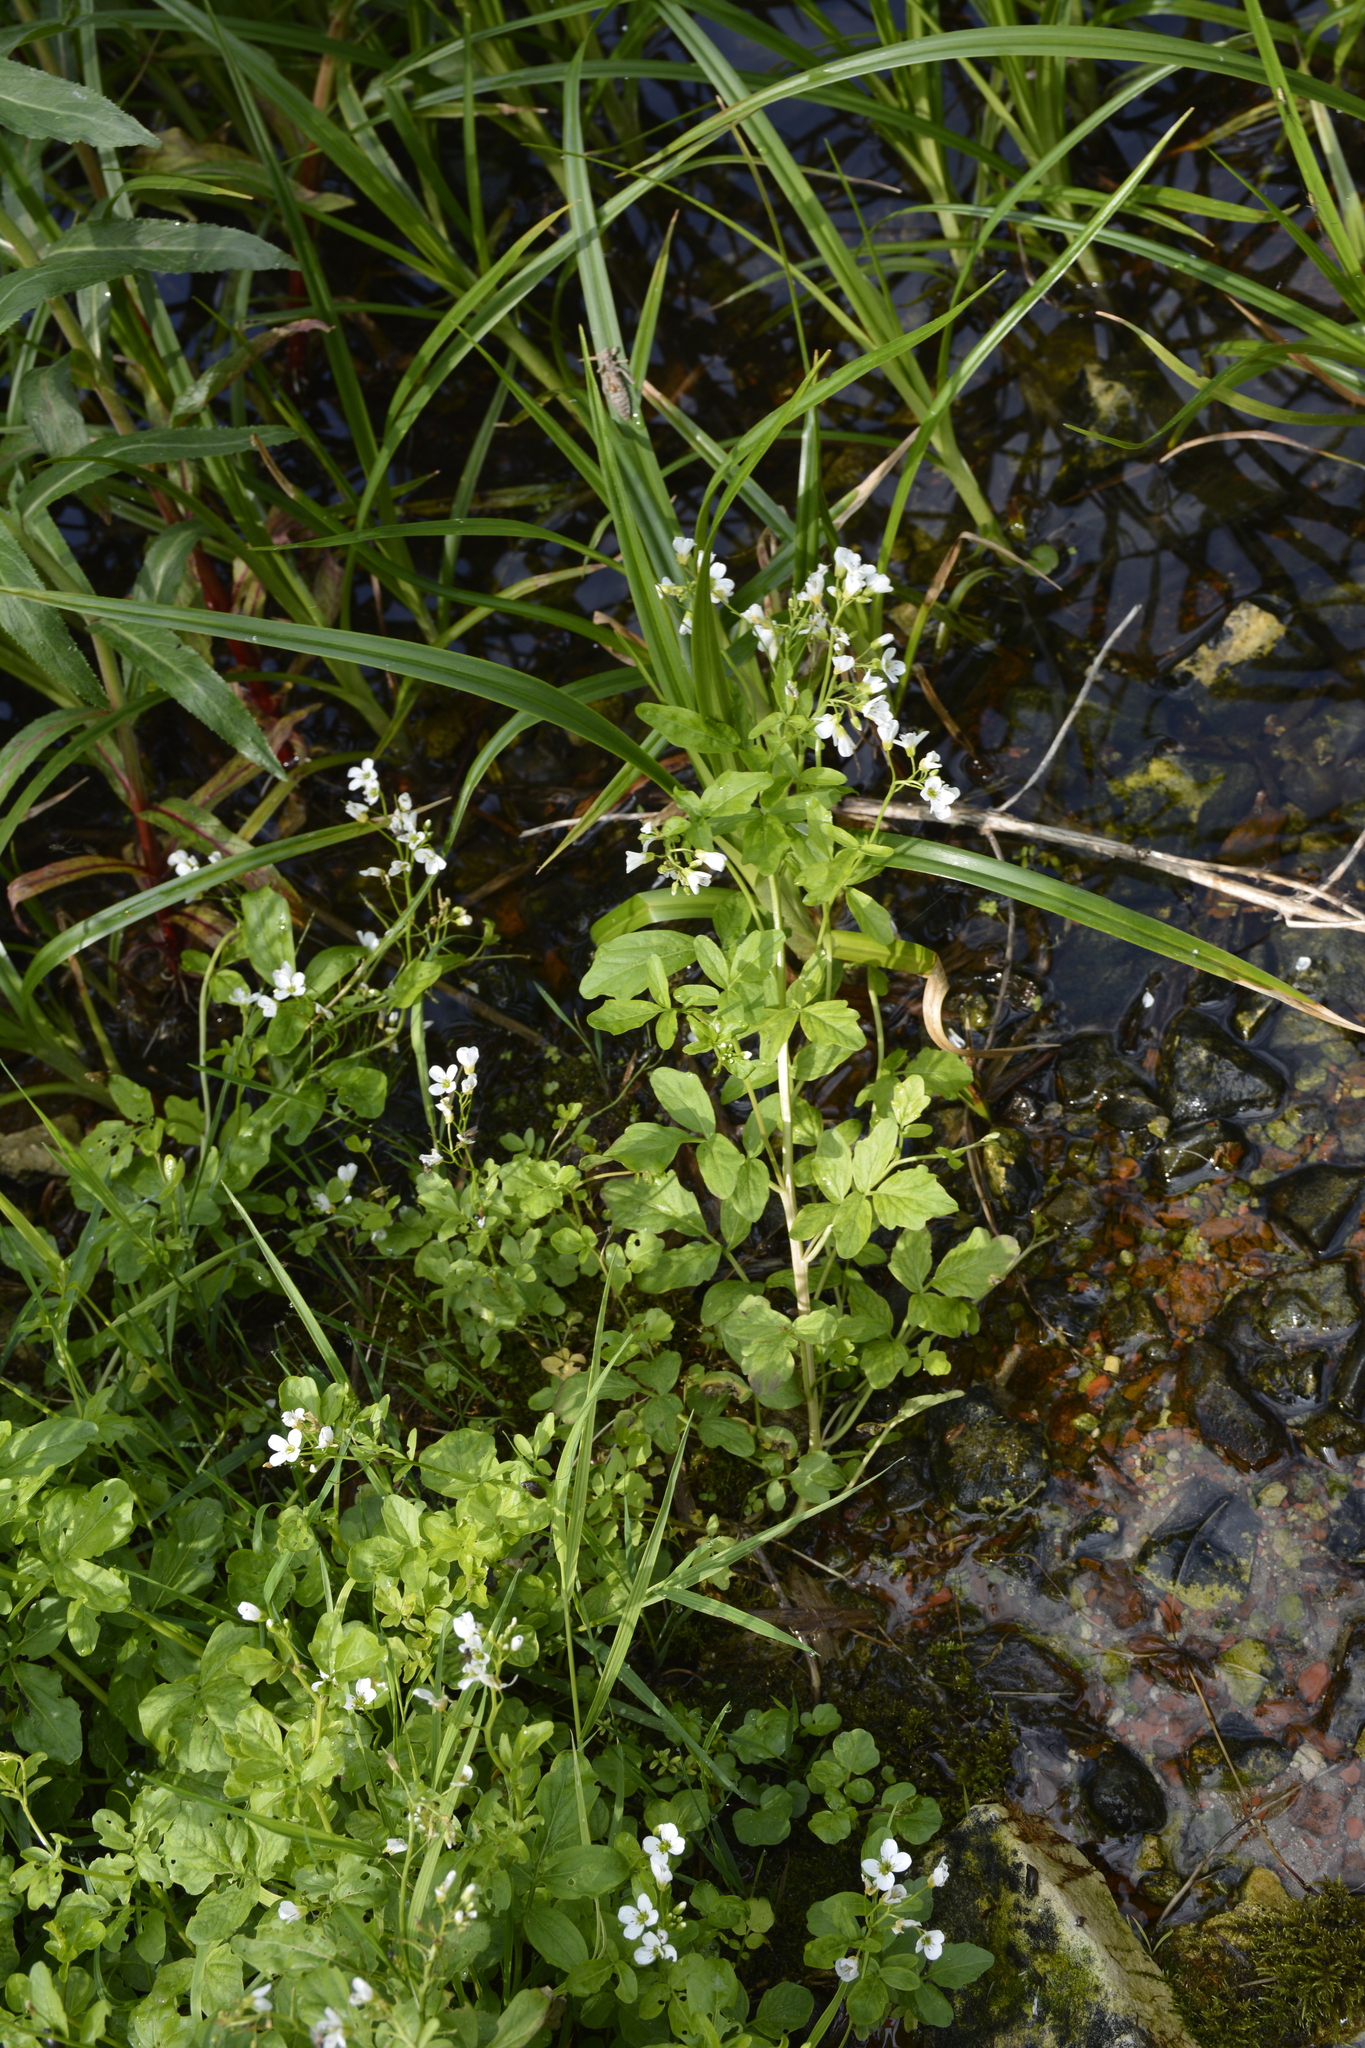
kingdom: Plantae
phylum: Tracheophyta
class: Magnoliopsida
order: Brassicales
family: Brassicaceae
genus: Cardamine
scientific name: Cardamine amara
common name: Large bitter-cress
